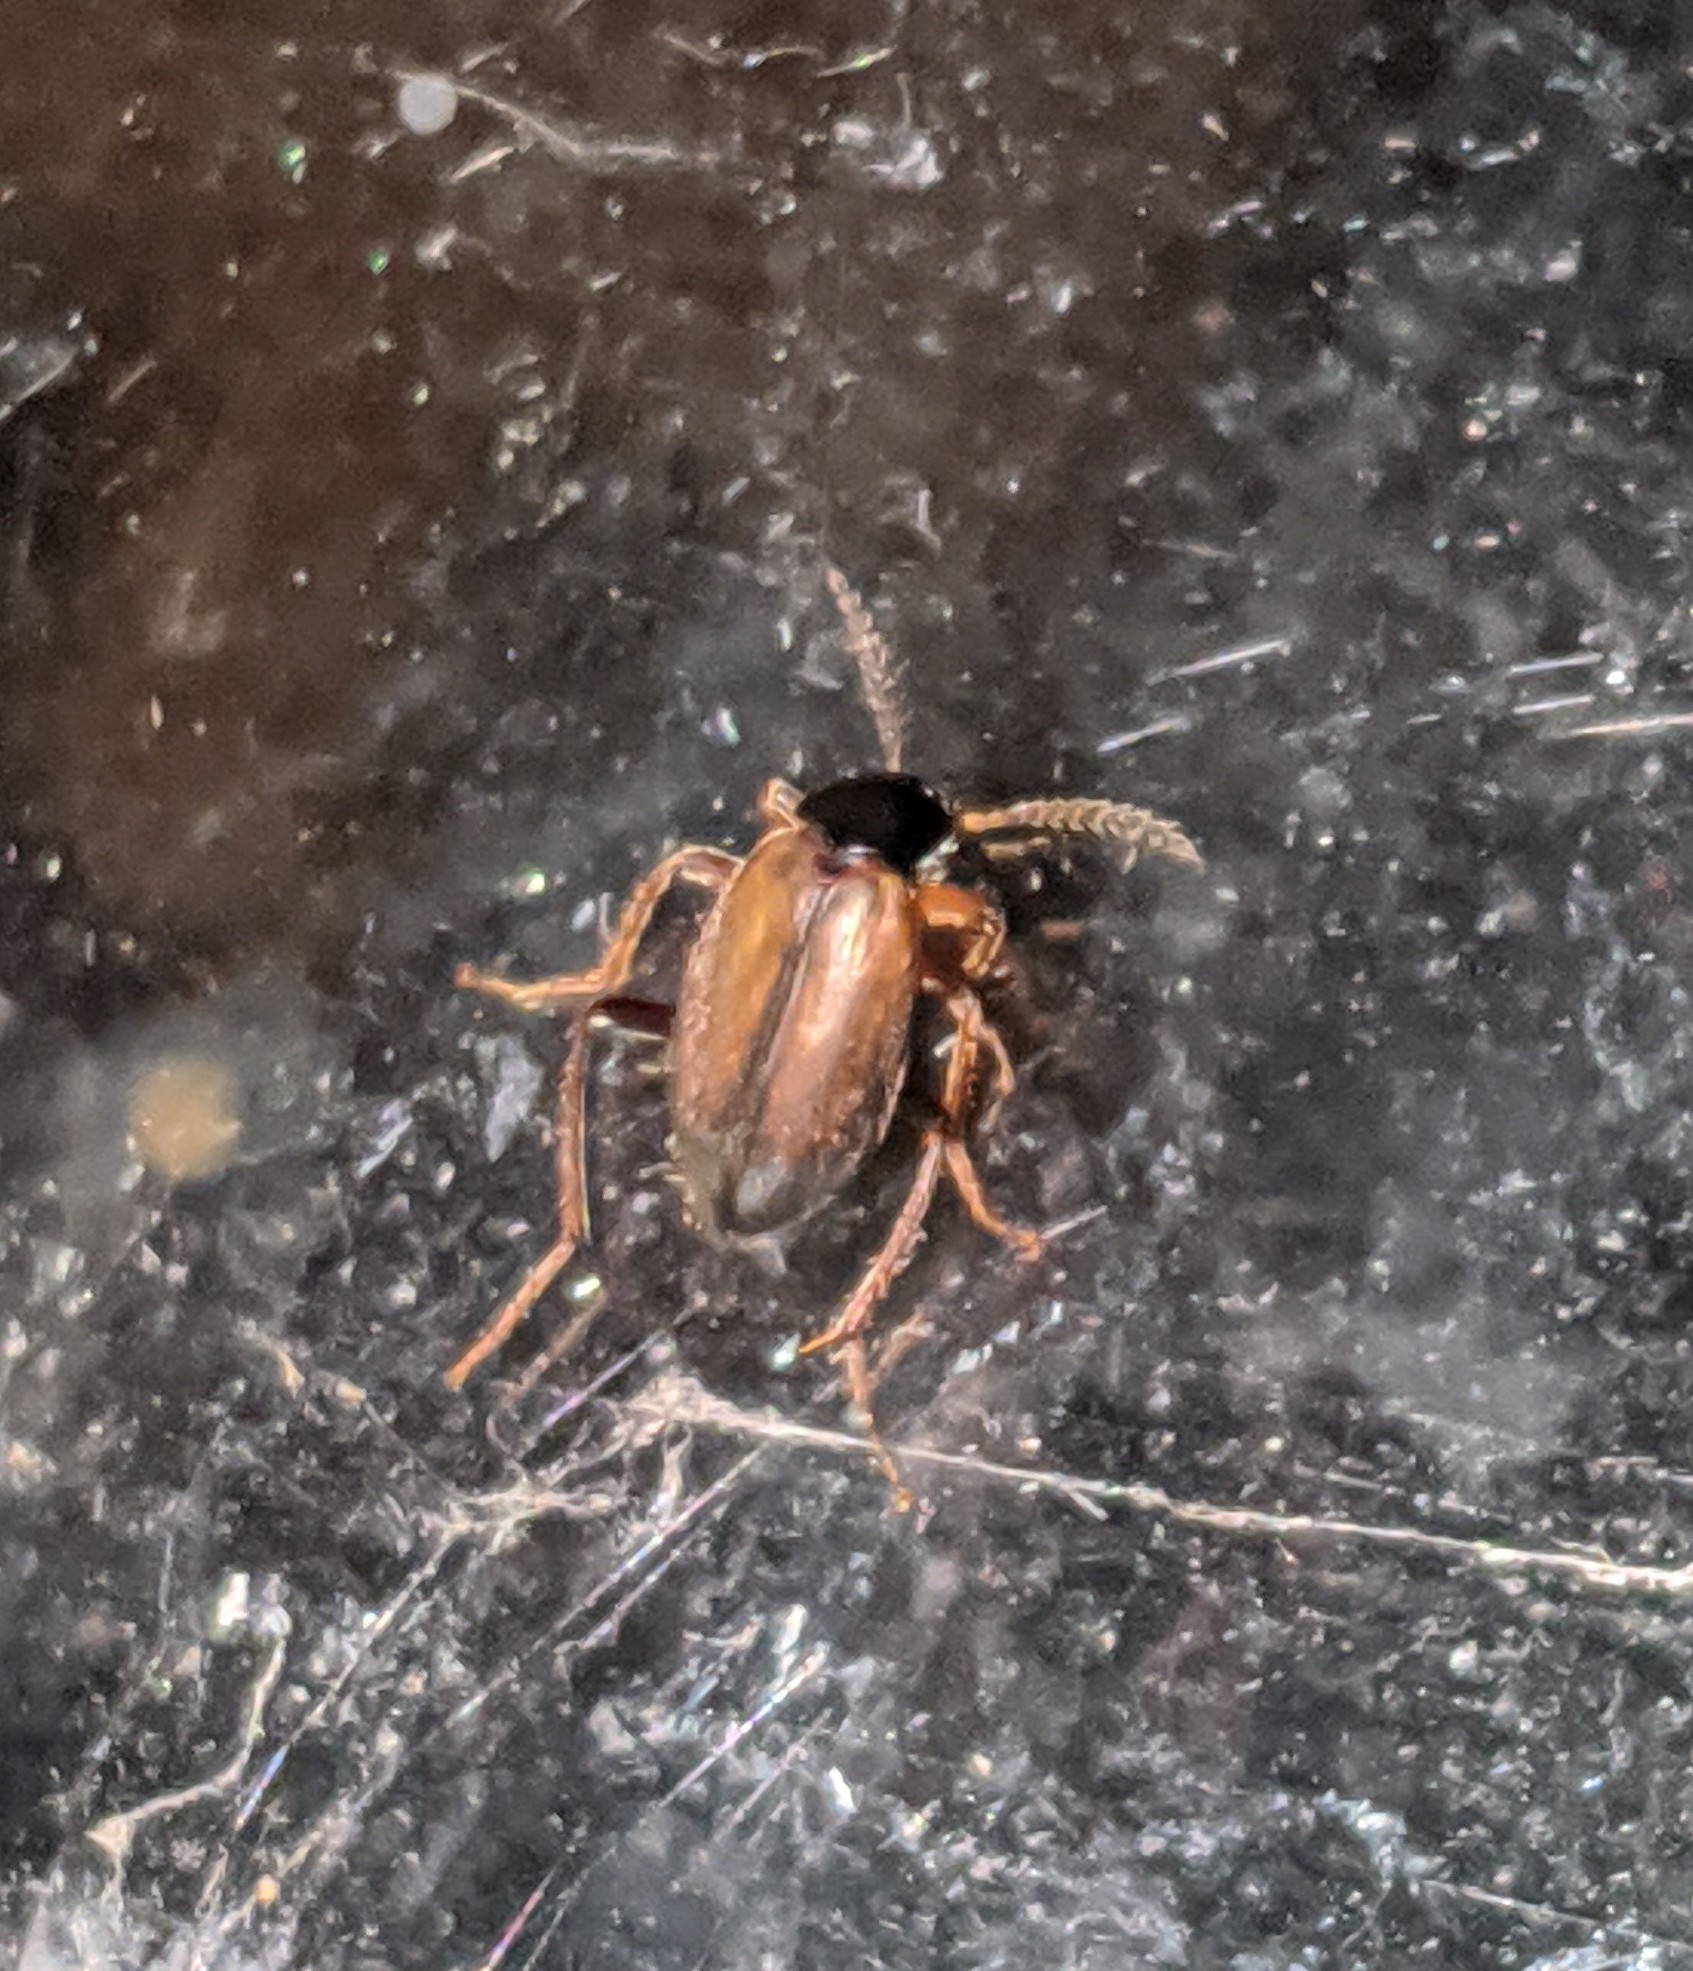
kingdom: Animalia
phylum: Arthropoda
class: Insecta
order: Coleoptera
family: Leiodidae
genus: Catoptrichus
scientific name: Catoptrichus frankenhaeuseri
